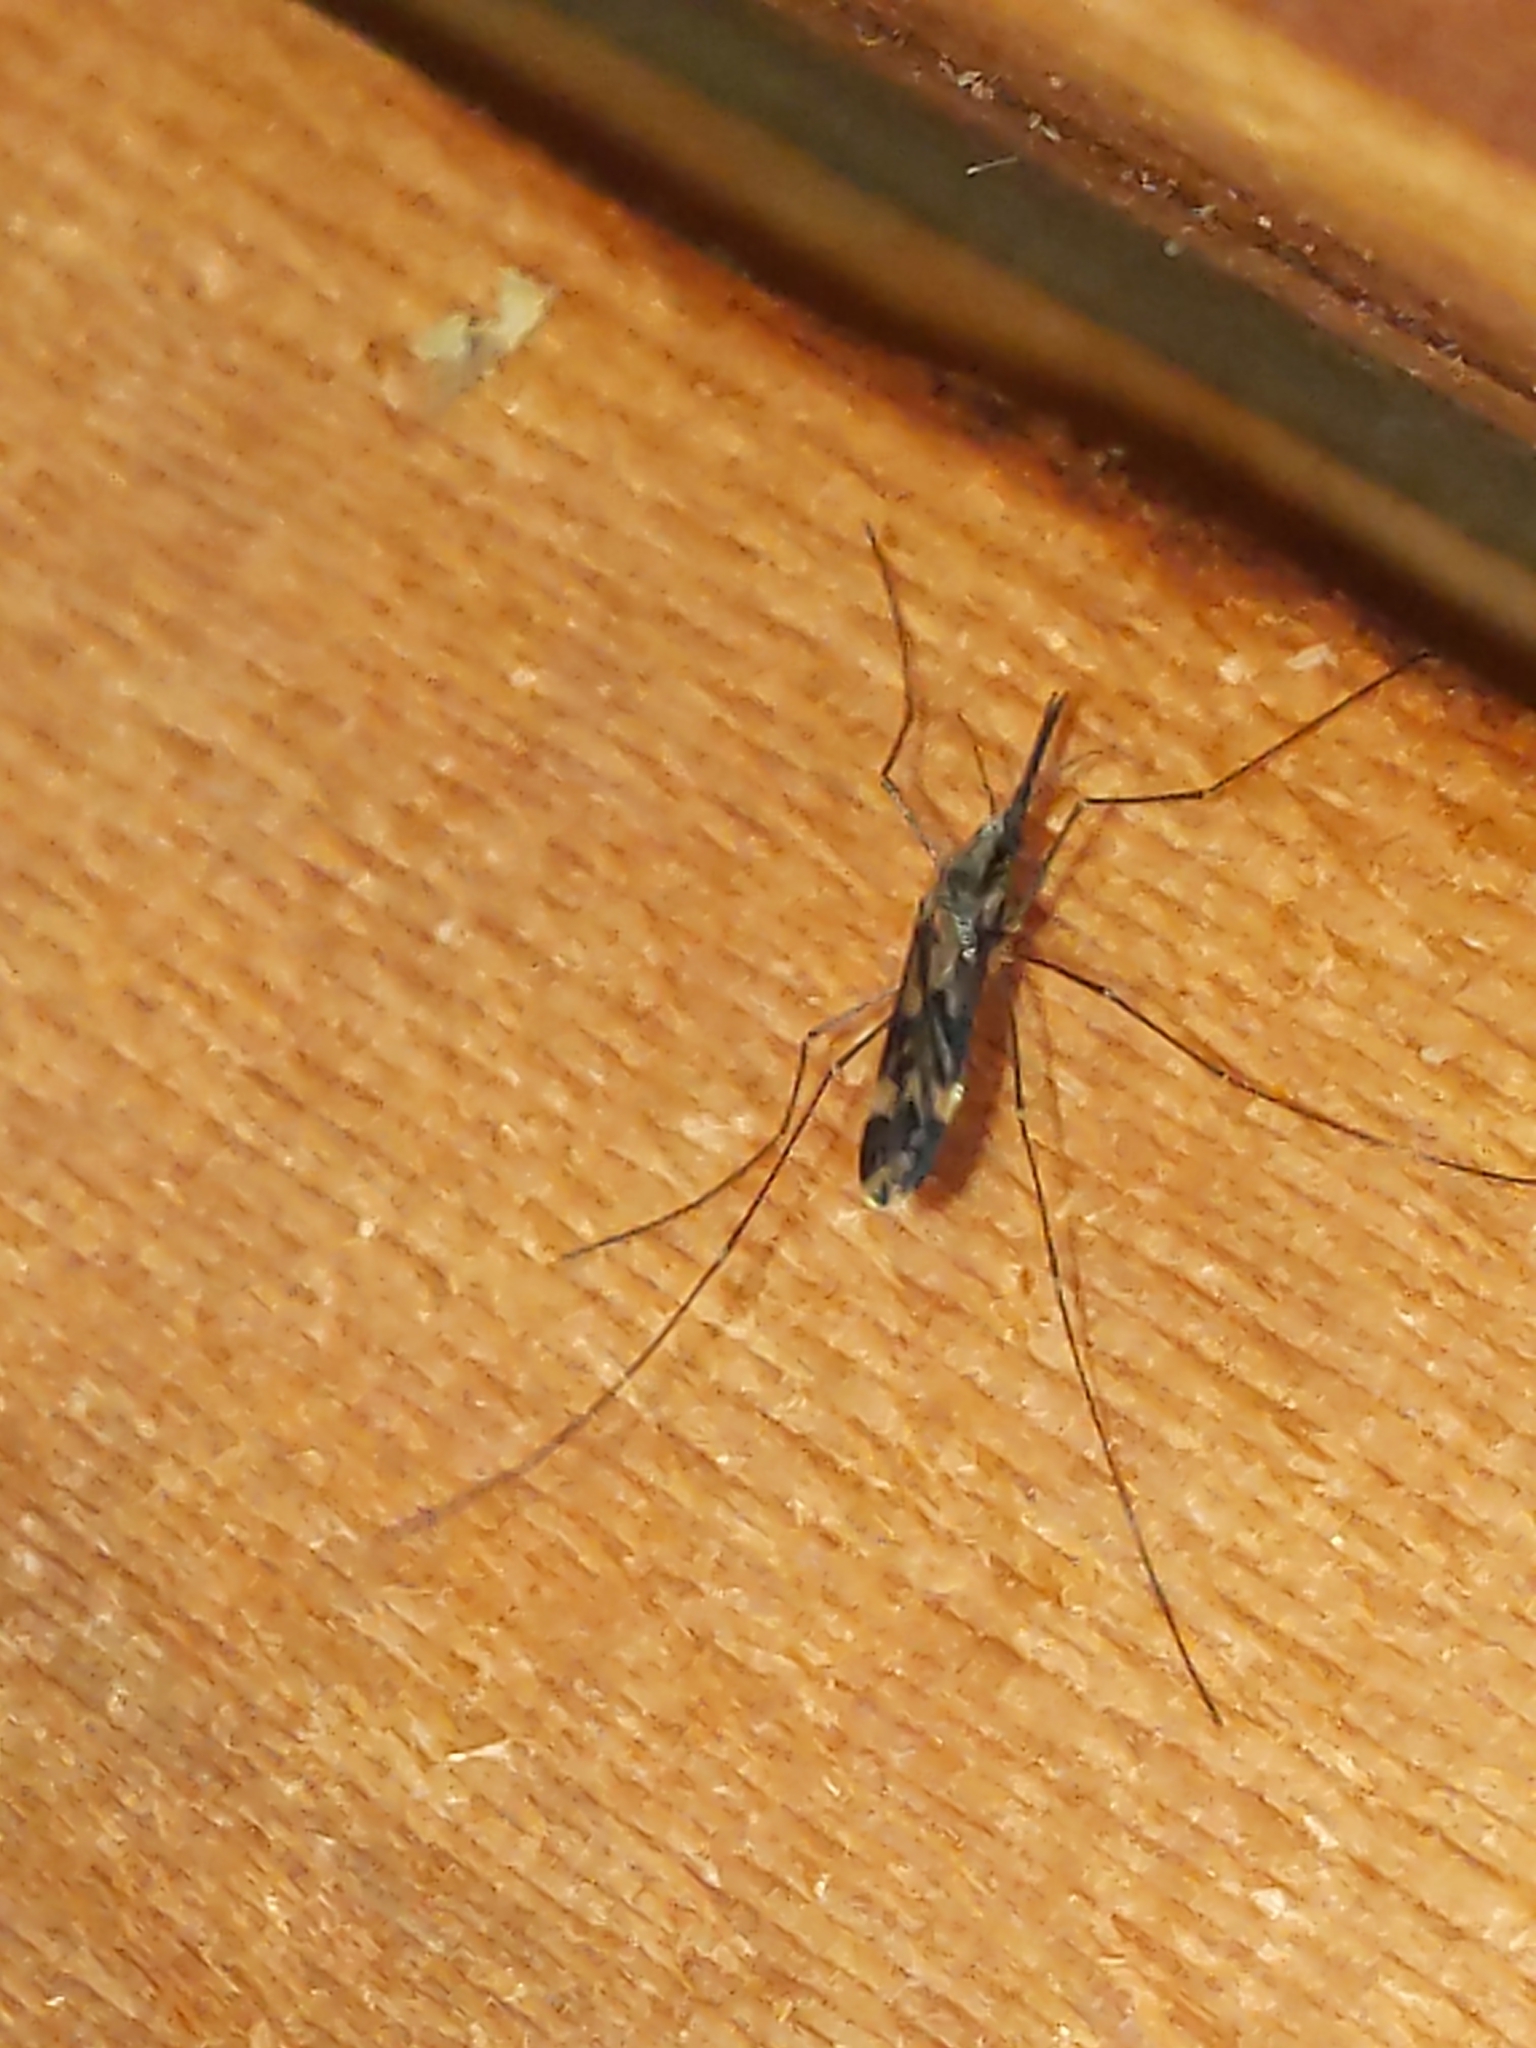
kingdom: Animalia
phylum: Arthropoda
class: Insecta
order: Diptera
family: Culicidae
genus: Anopheles
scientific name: Anopheles punctipennis
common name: Woodland malaria mosquito
